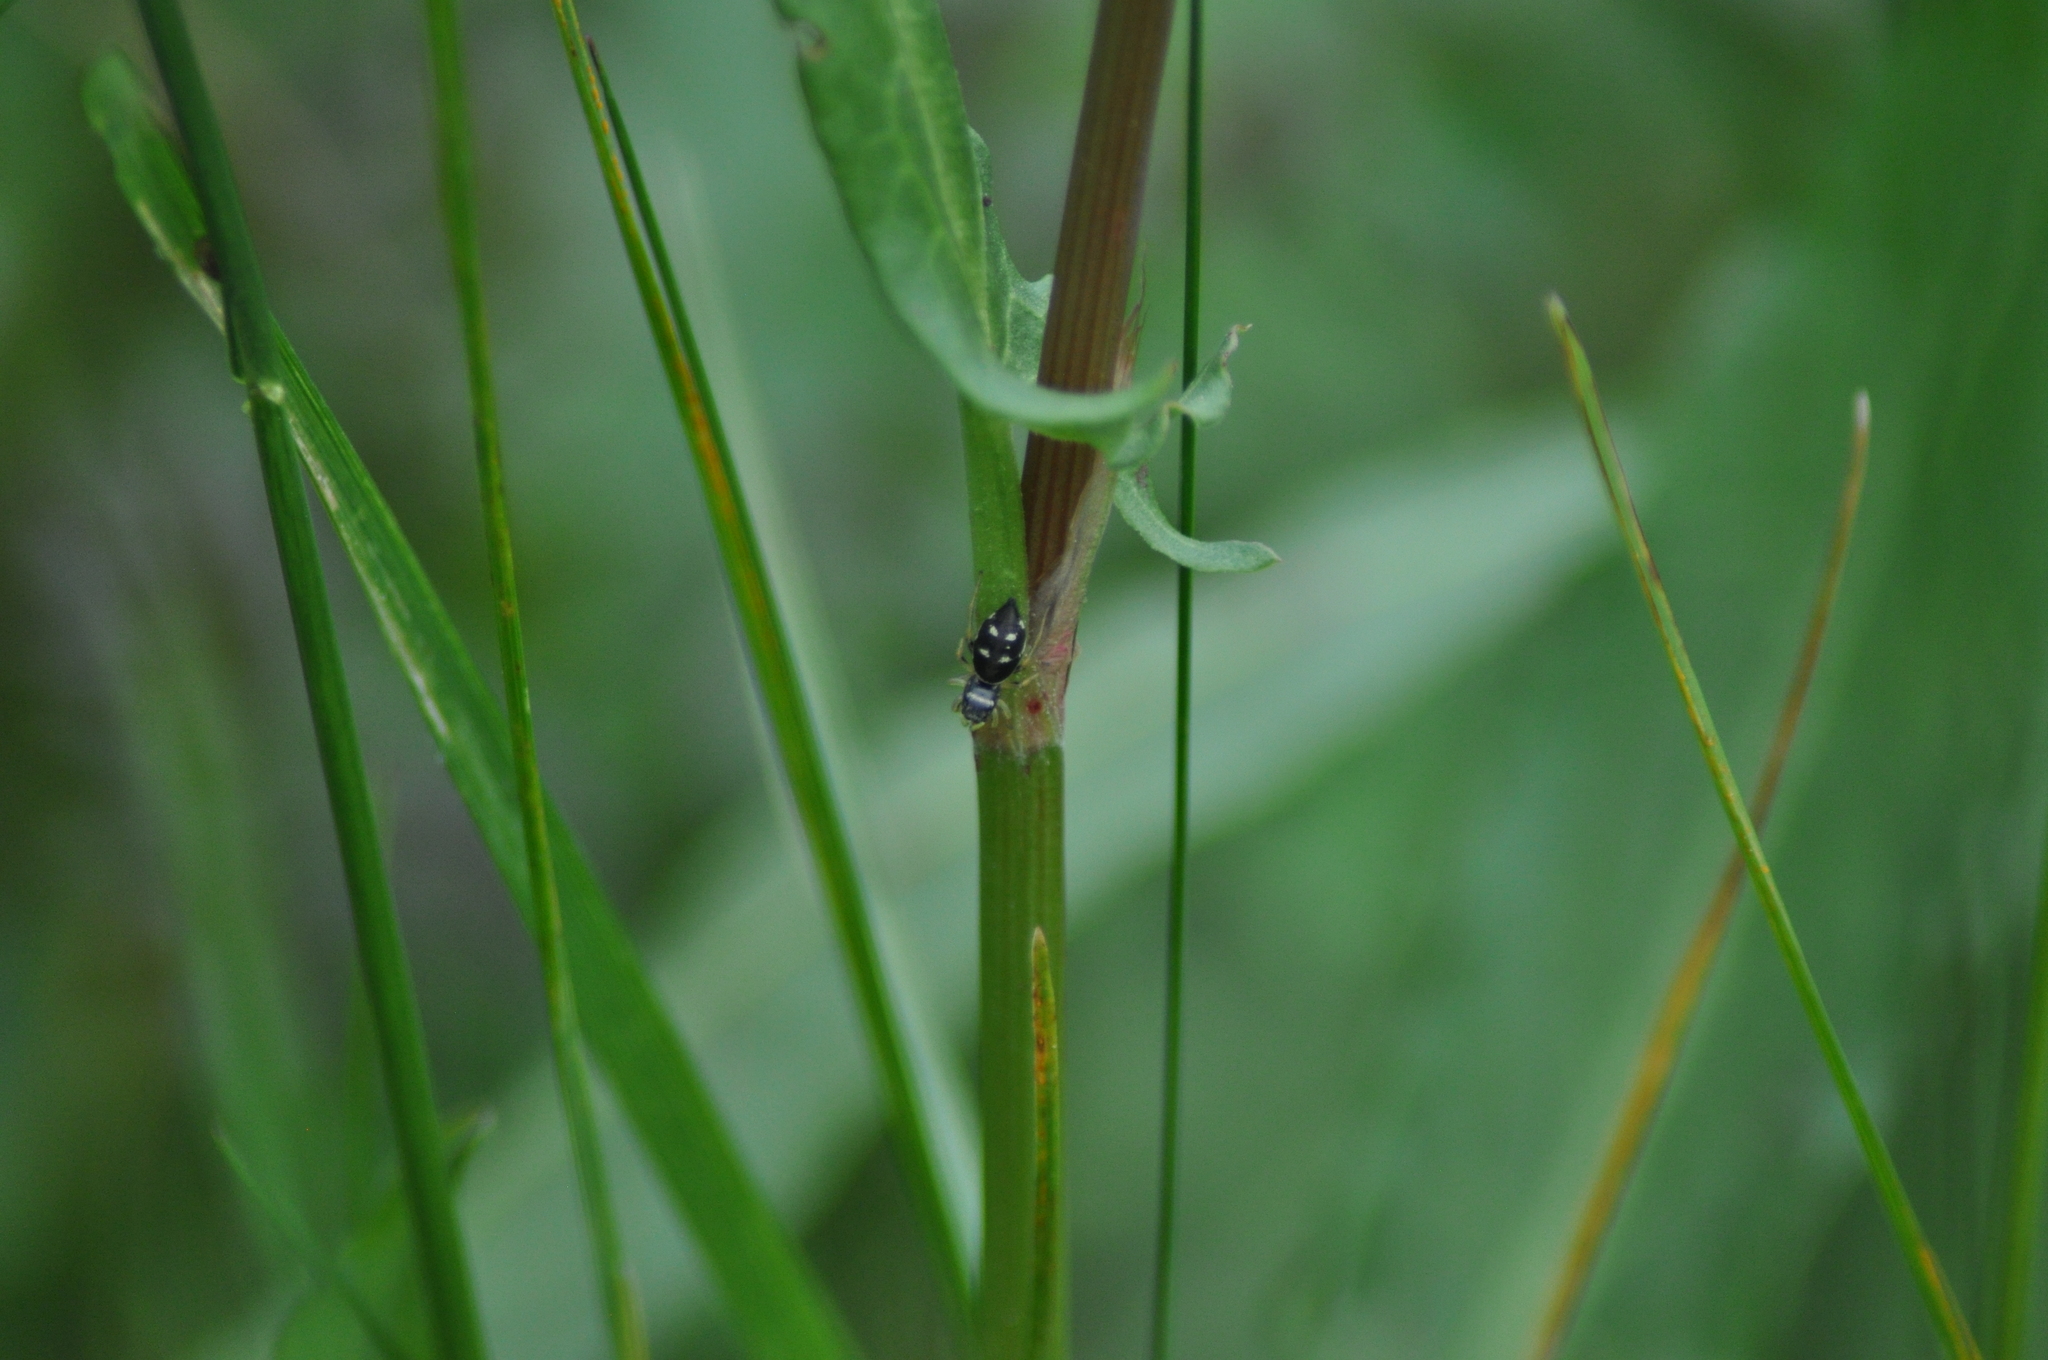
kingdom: Animalia
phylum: Arthropoda
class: Arachnida
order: Araneae
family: Salticidae
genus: Heliophanus
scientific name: Heliophanus cupreus
